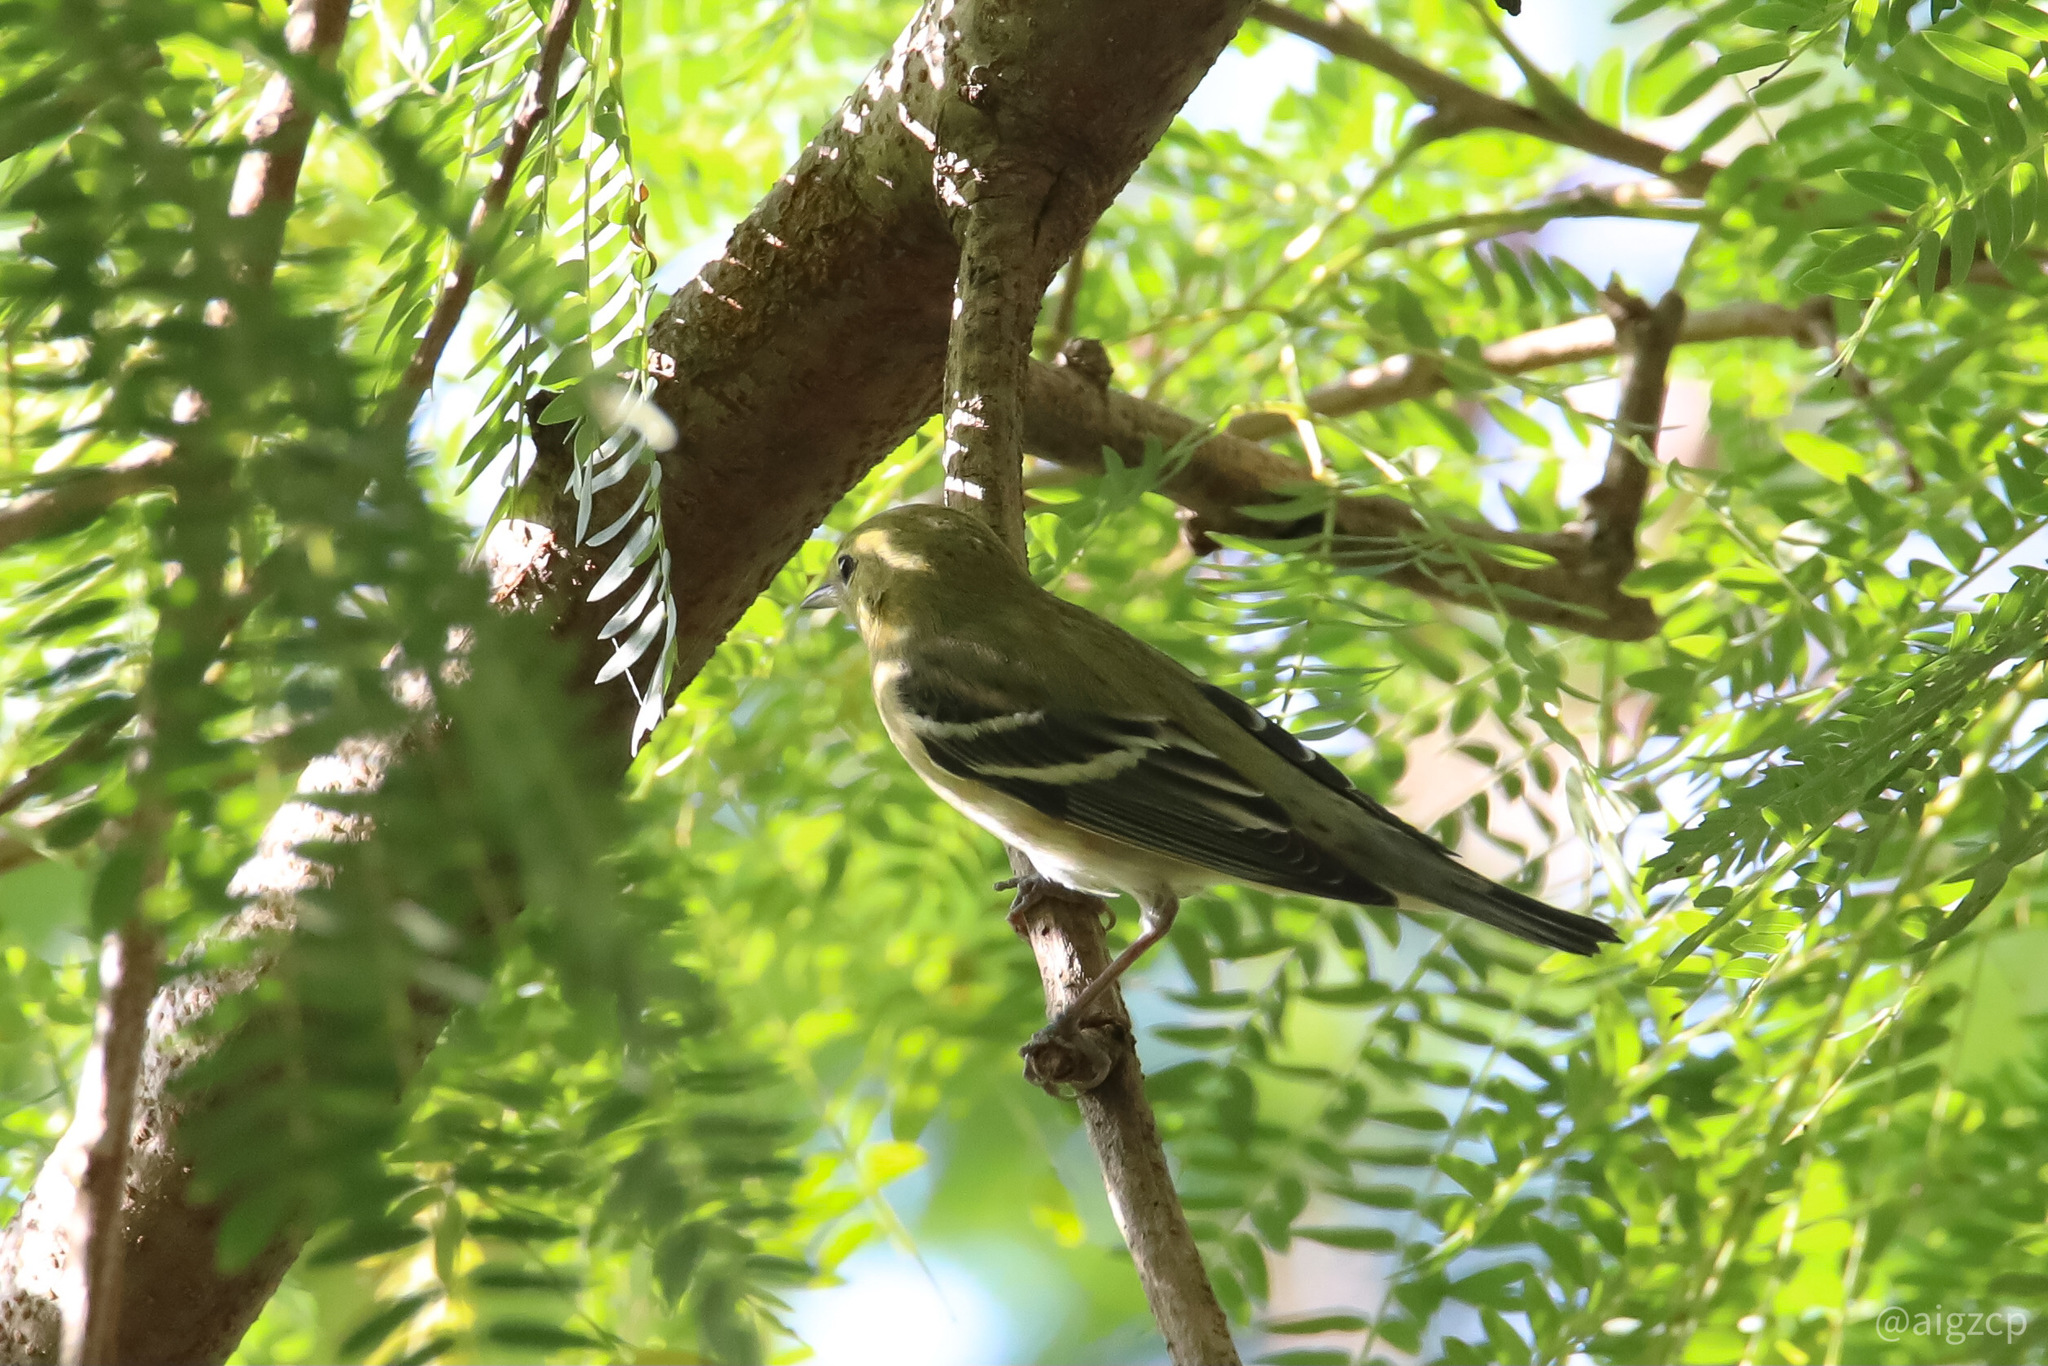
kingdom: Animalia
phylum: Chordata
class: Aves
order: Passeriformes
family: Parulidae
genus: Setophaga
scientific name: Setophaga castanea
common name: Bay-breasted warbler
